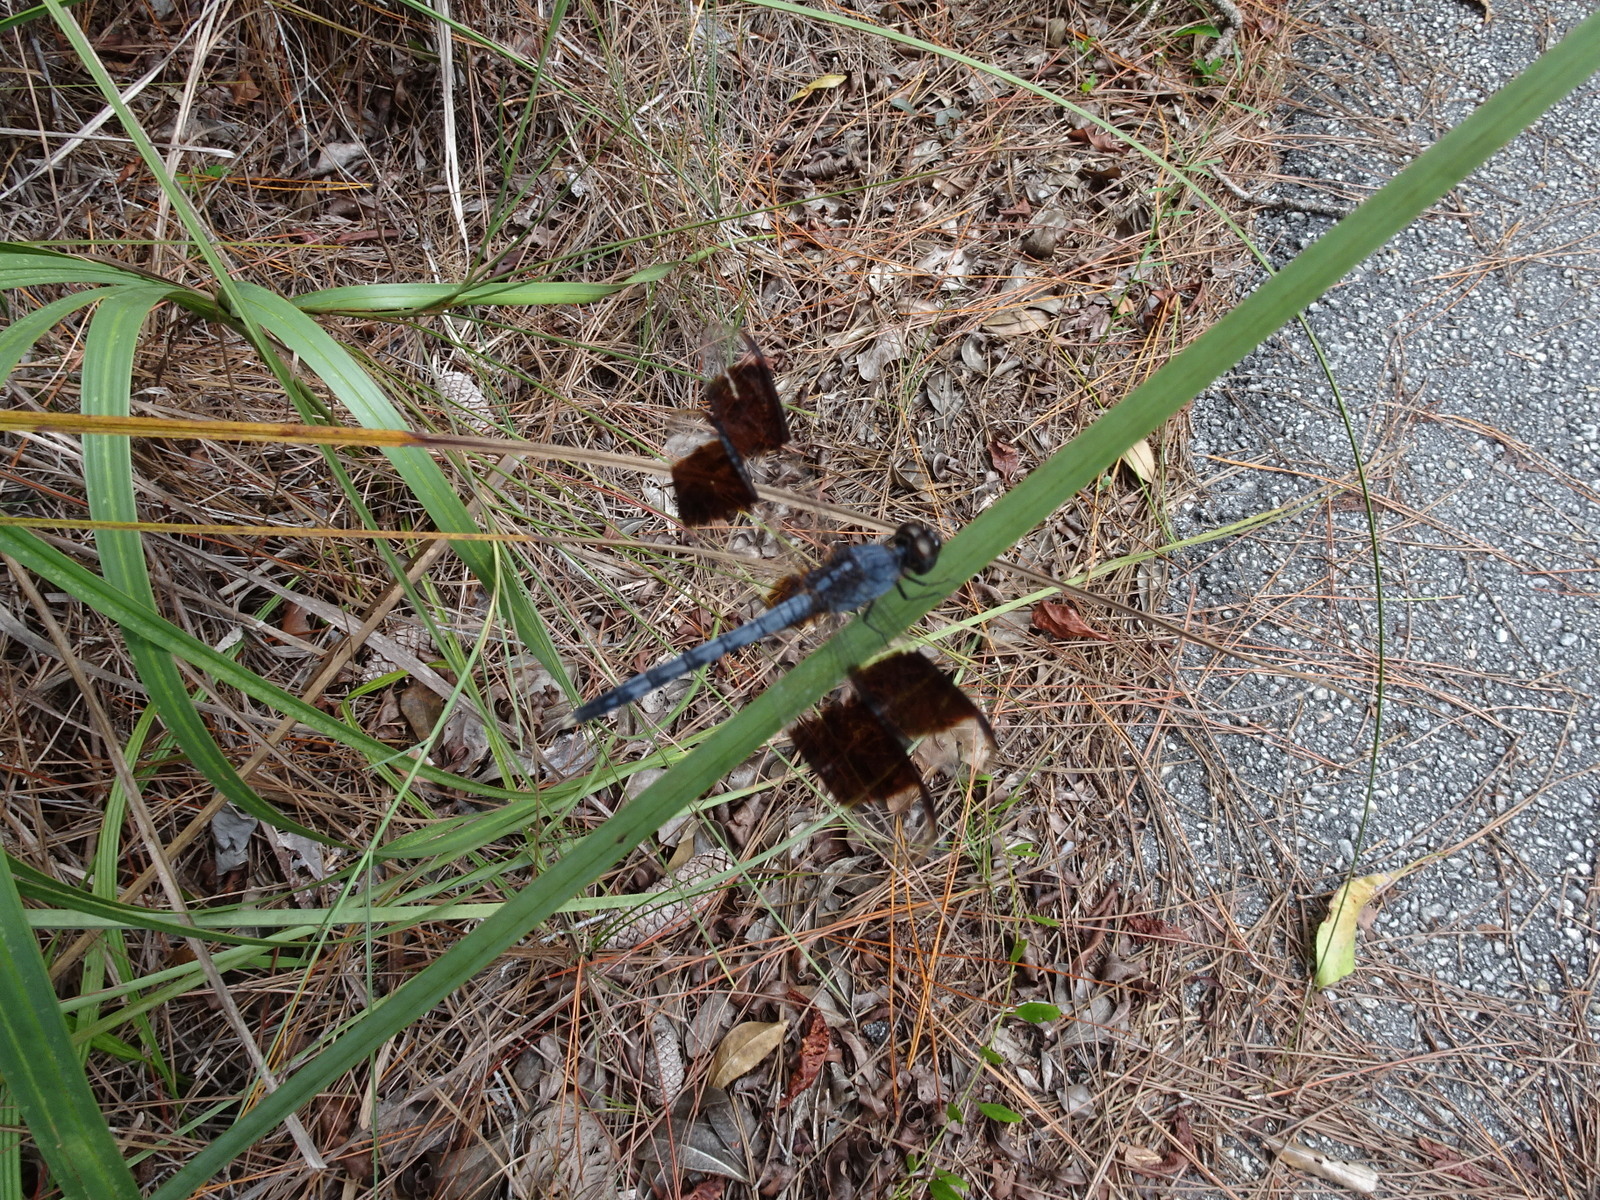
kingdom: Animalia
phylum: Arthropoda
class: Insecta
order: Odonata
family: Libellulidae
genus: Erythrodiplax
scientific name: Erythrodiplax umbrata
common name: Band-winged dragonlet
